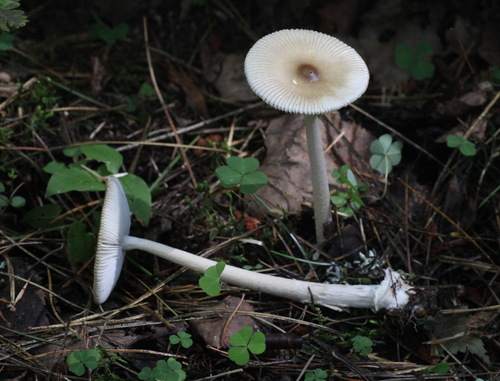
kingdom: Fungi
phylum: Basidiomycota
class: Agaricomycetes
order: Agaricales
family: Amanitaceae
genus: Amanita
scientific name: Amanita battarrae
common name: Banded amanita
